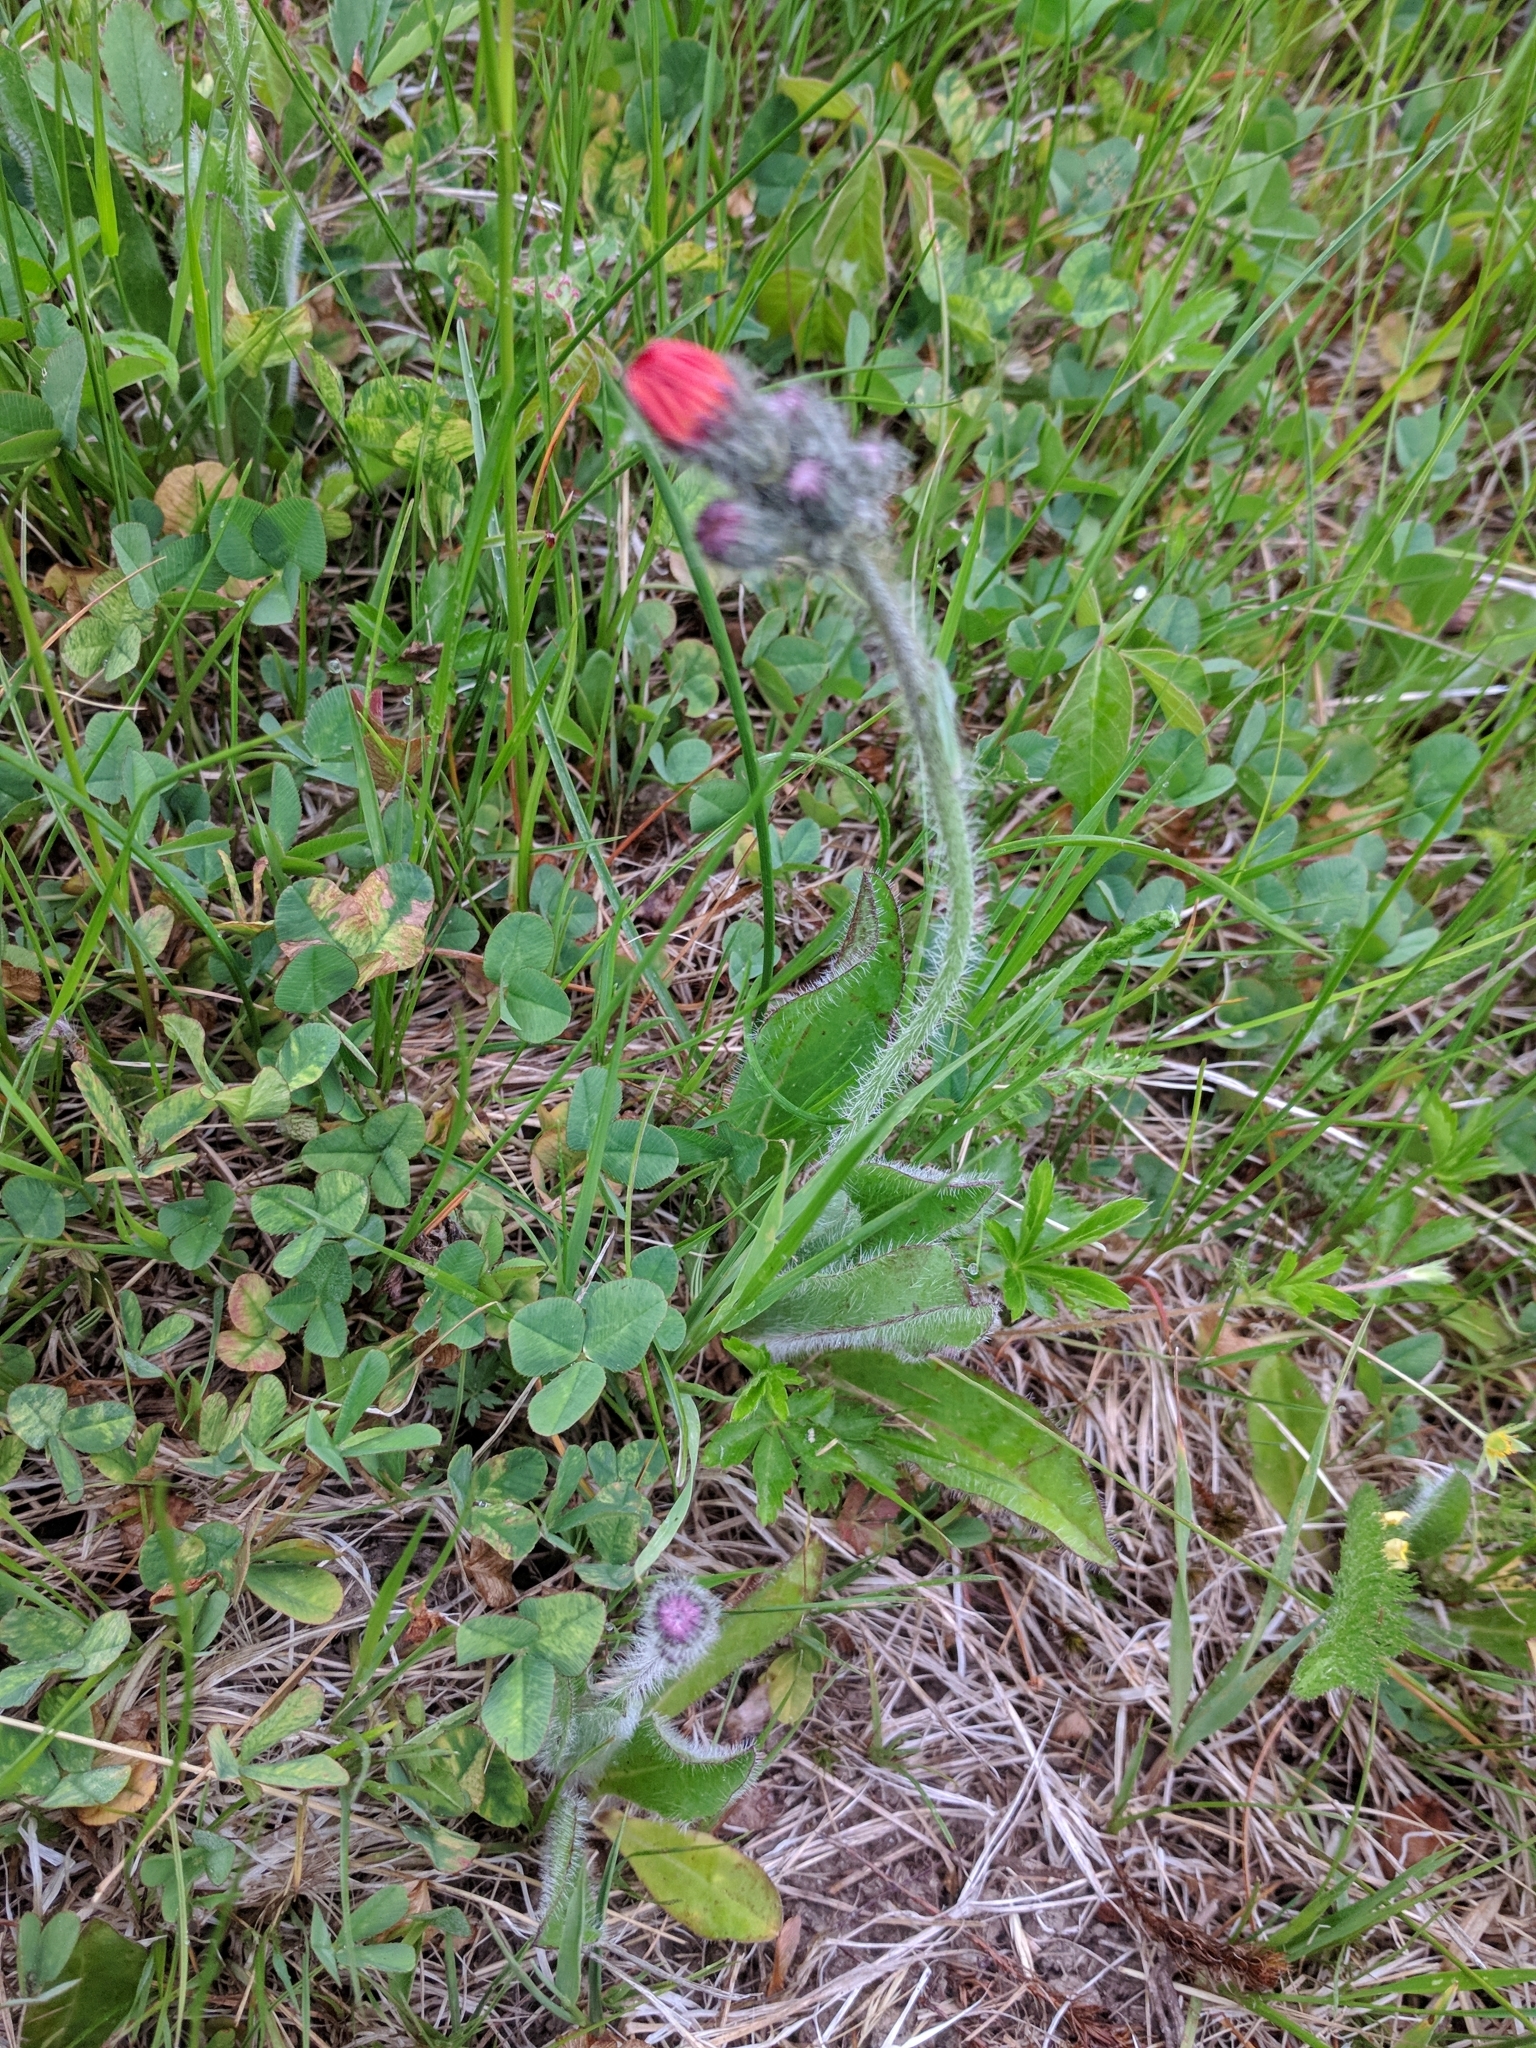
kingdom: Plantae
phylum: Tracheophyta
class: Magnoliopsida
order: Asterales
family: Asteraceae
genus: Pilosella
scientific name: Pilosella aurantiaca
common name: Fox-and-cubs
